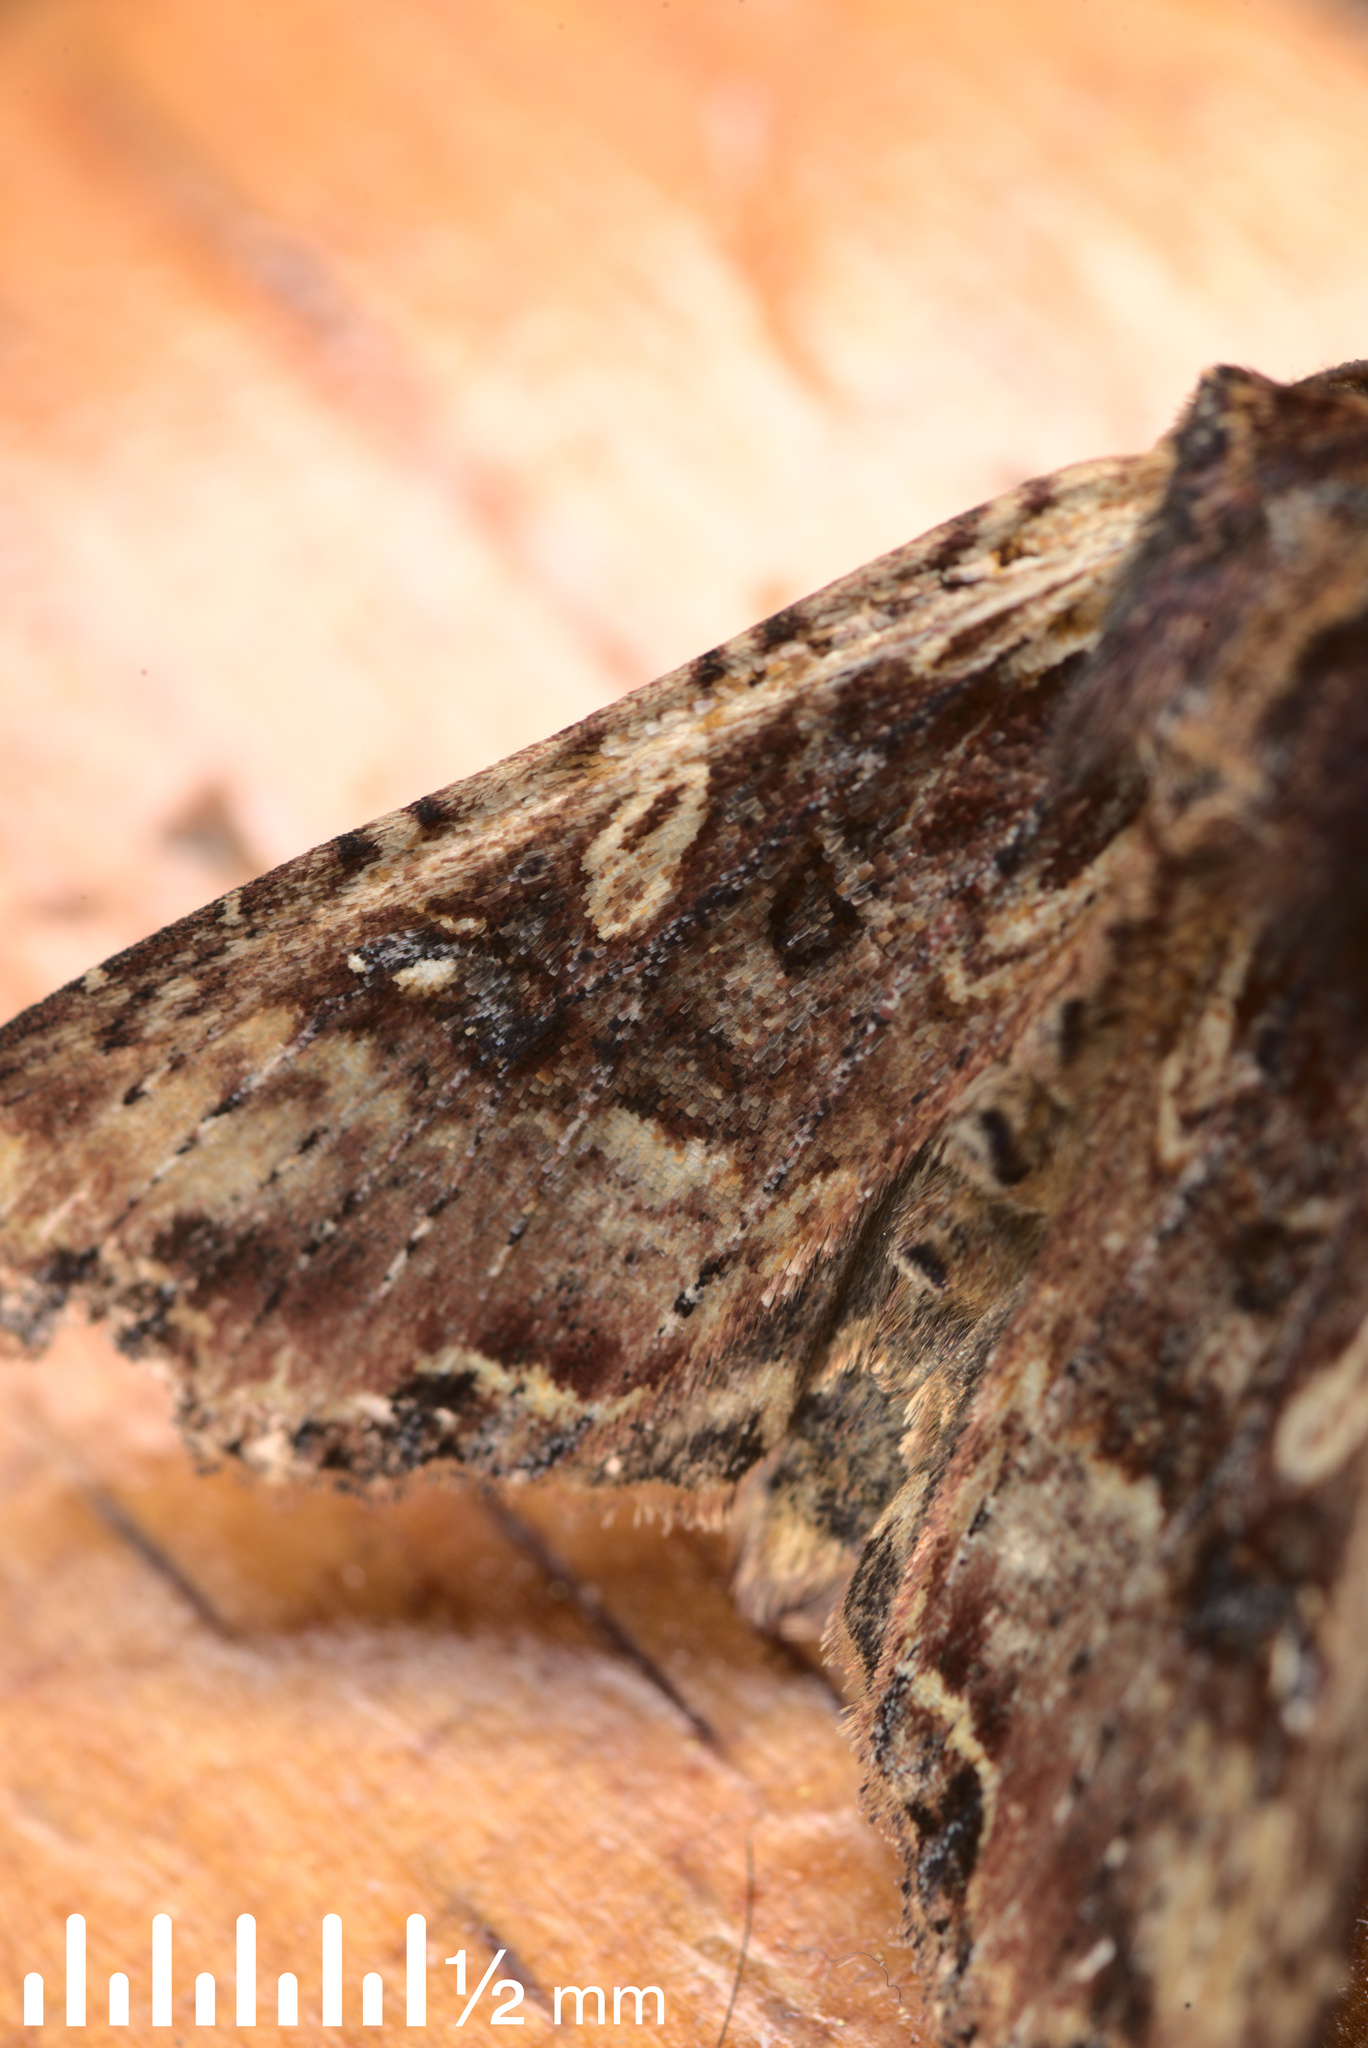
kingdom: Animalia
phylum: Arthropoda
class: Insecta
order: Lepidoptera
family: Noctuidae
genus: Meterana
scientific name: Meterana stipata
